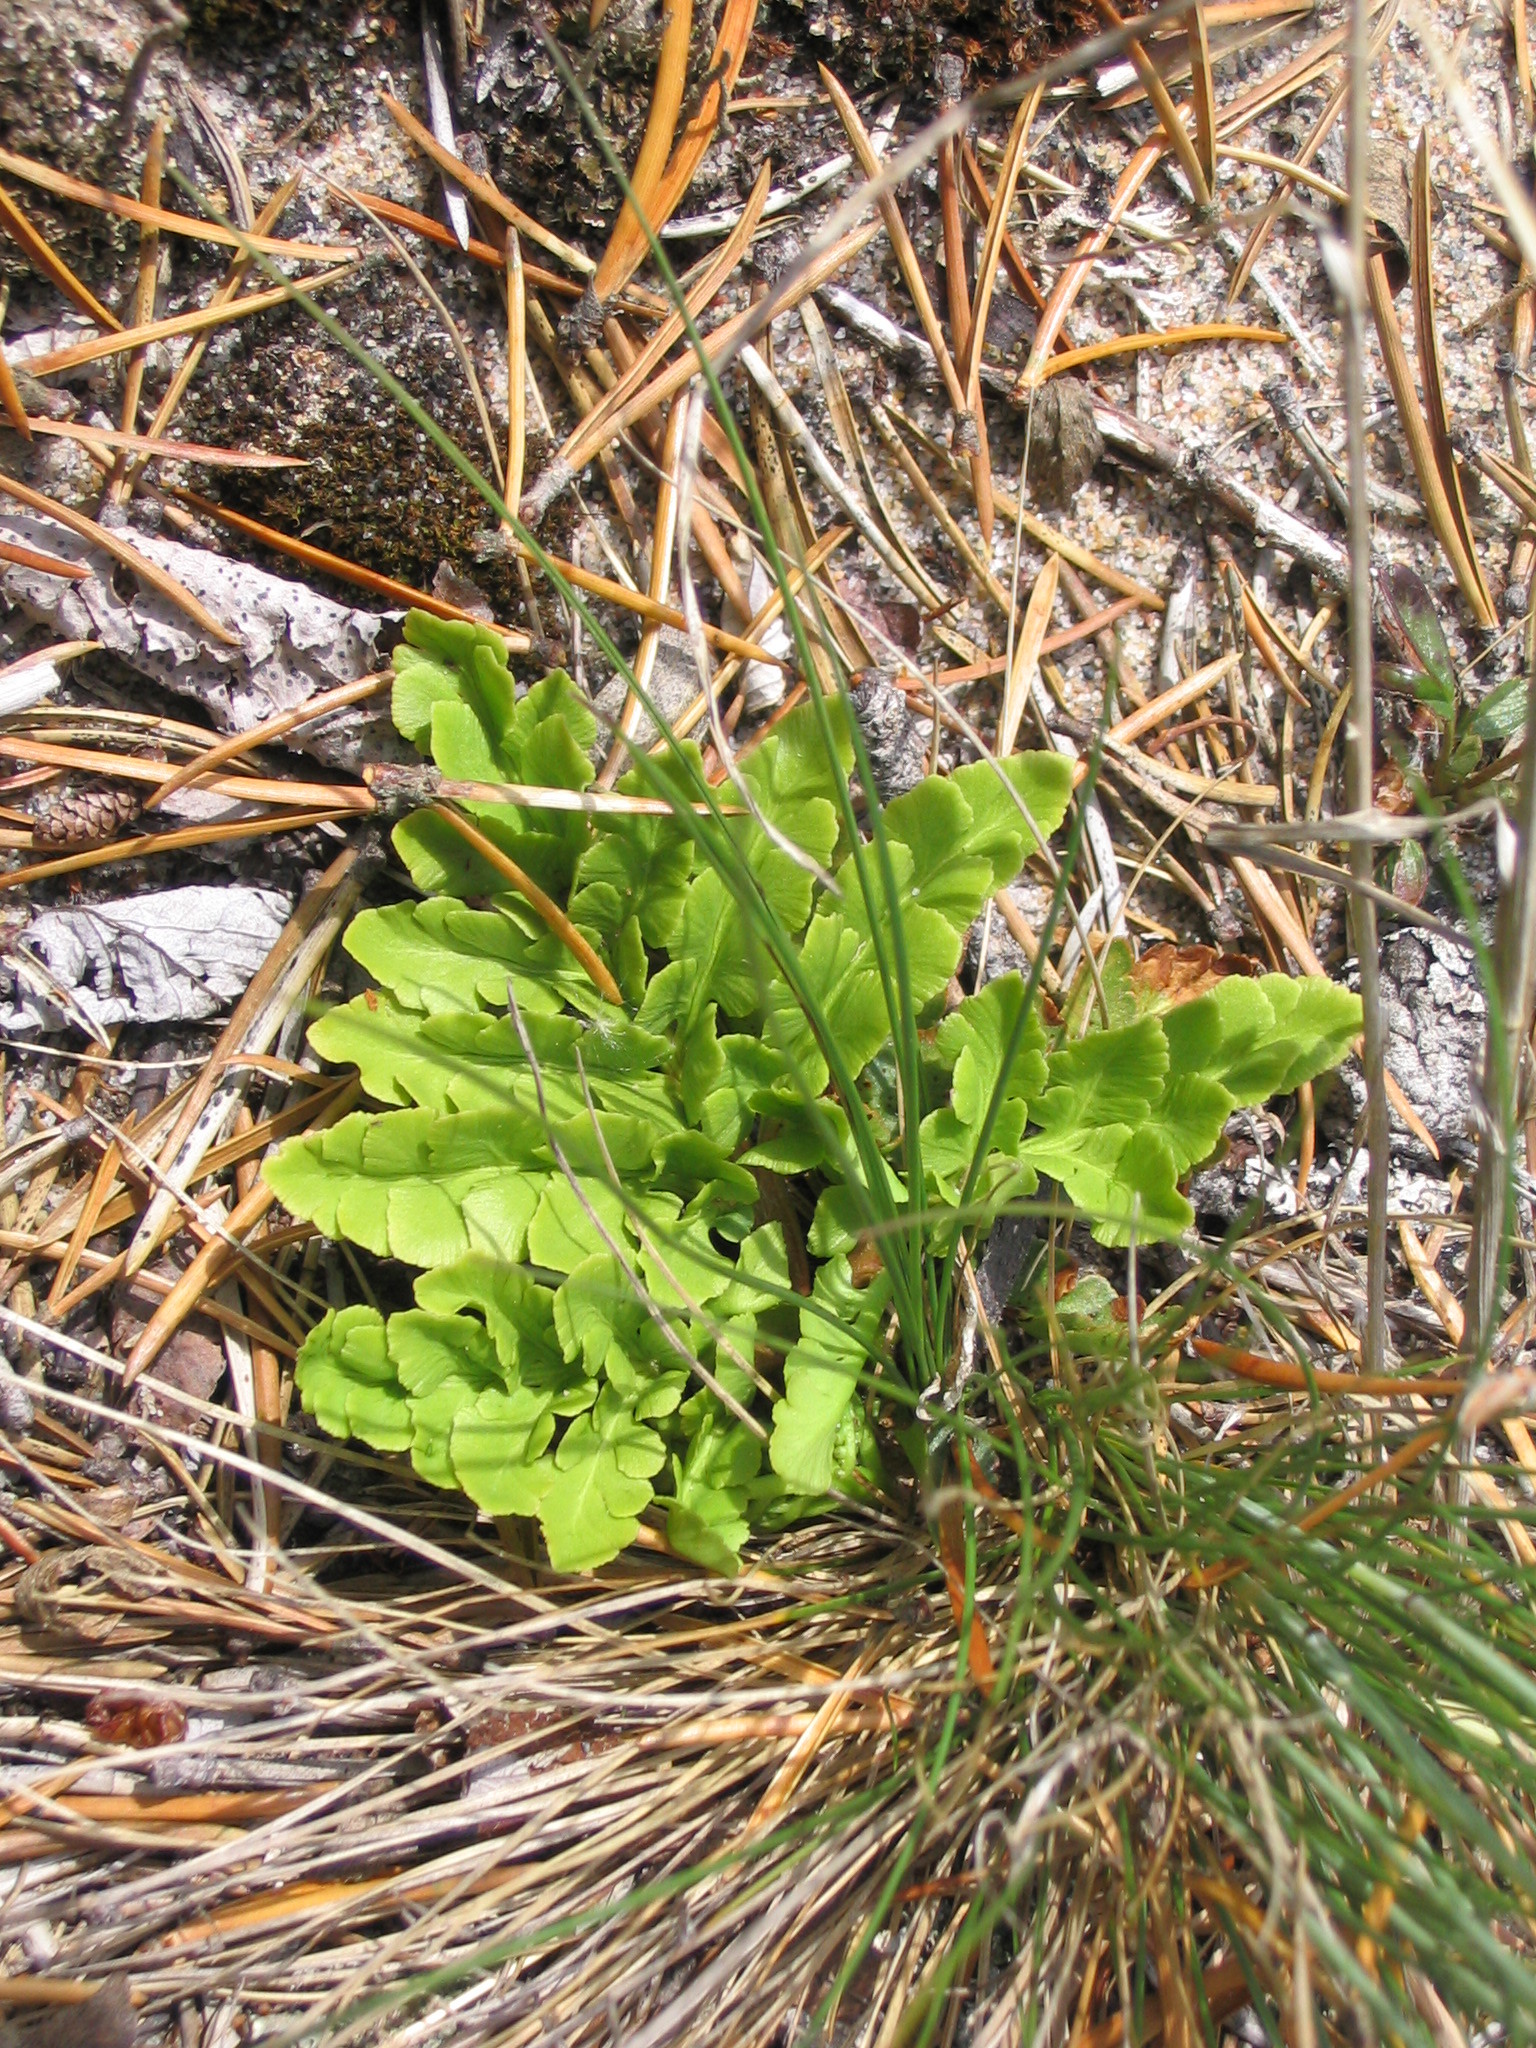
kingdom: Plantae
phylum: Tracheophyta
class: Polypodiopsida
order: Ophioglossales
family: Ophioglossaceae
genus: Sceptridium
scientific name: Sceptridium multifidum
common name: Leathery grape fern
